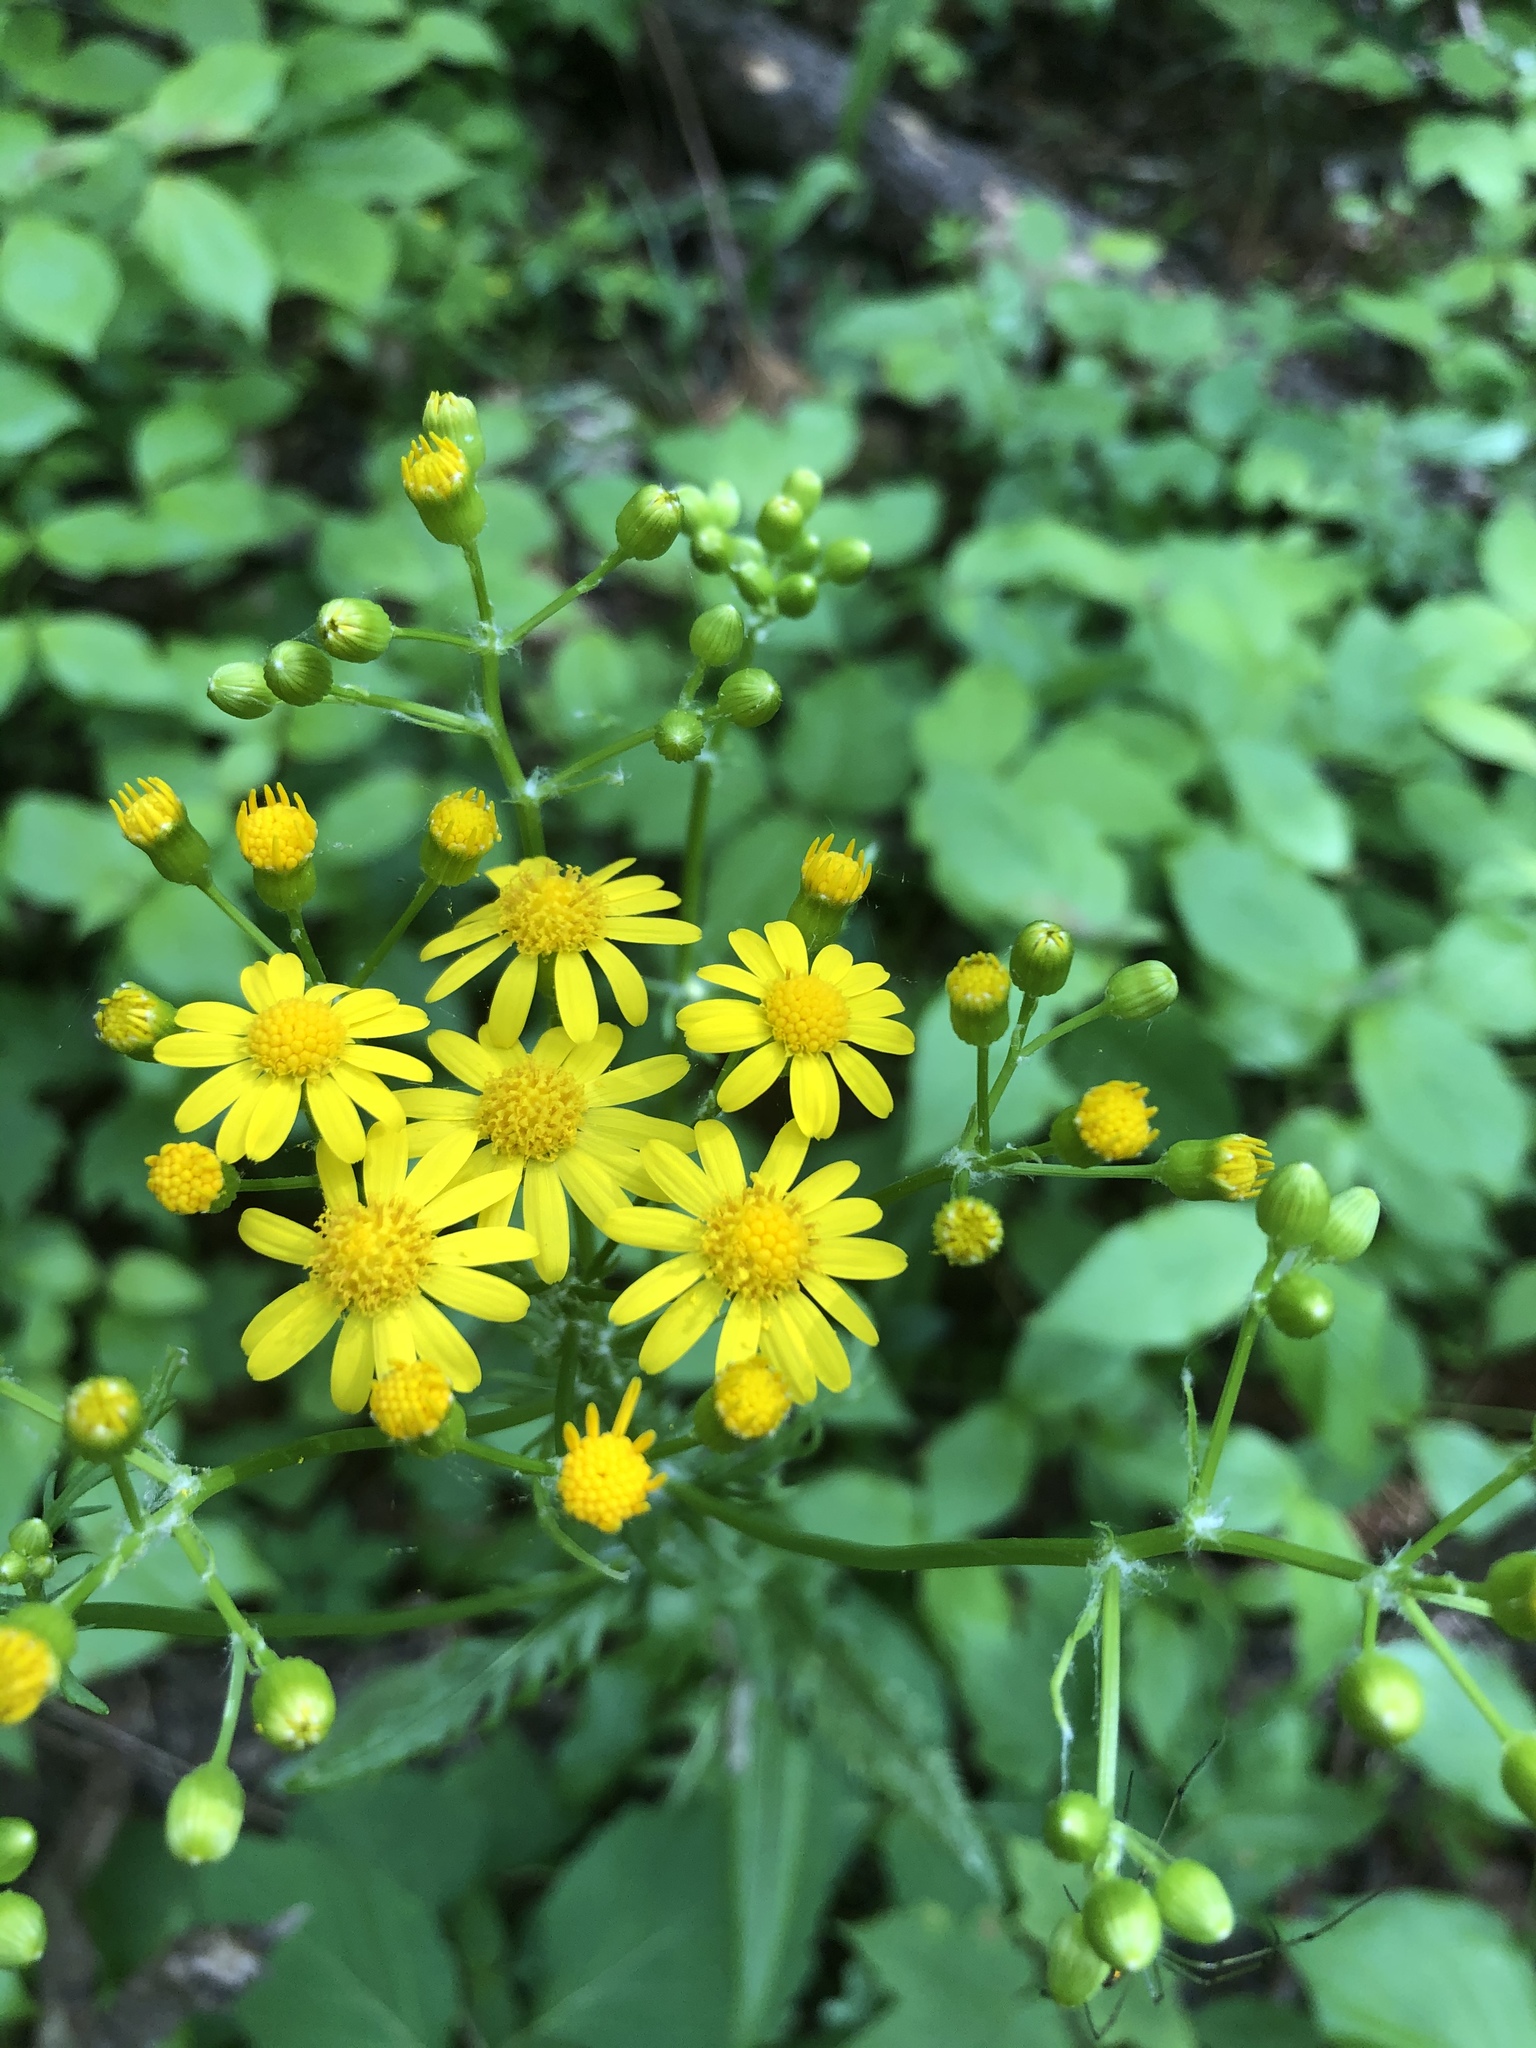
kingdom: Plantae
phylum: Tracheophyta
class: Magnoliopsida
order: Asterales
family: Asteraceae
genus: Packera
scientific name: Packera anonyma
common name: Small ragwort
